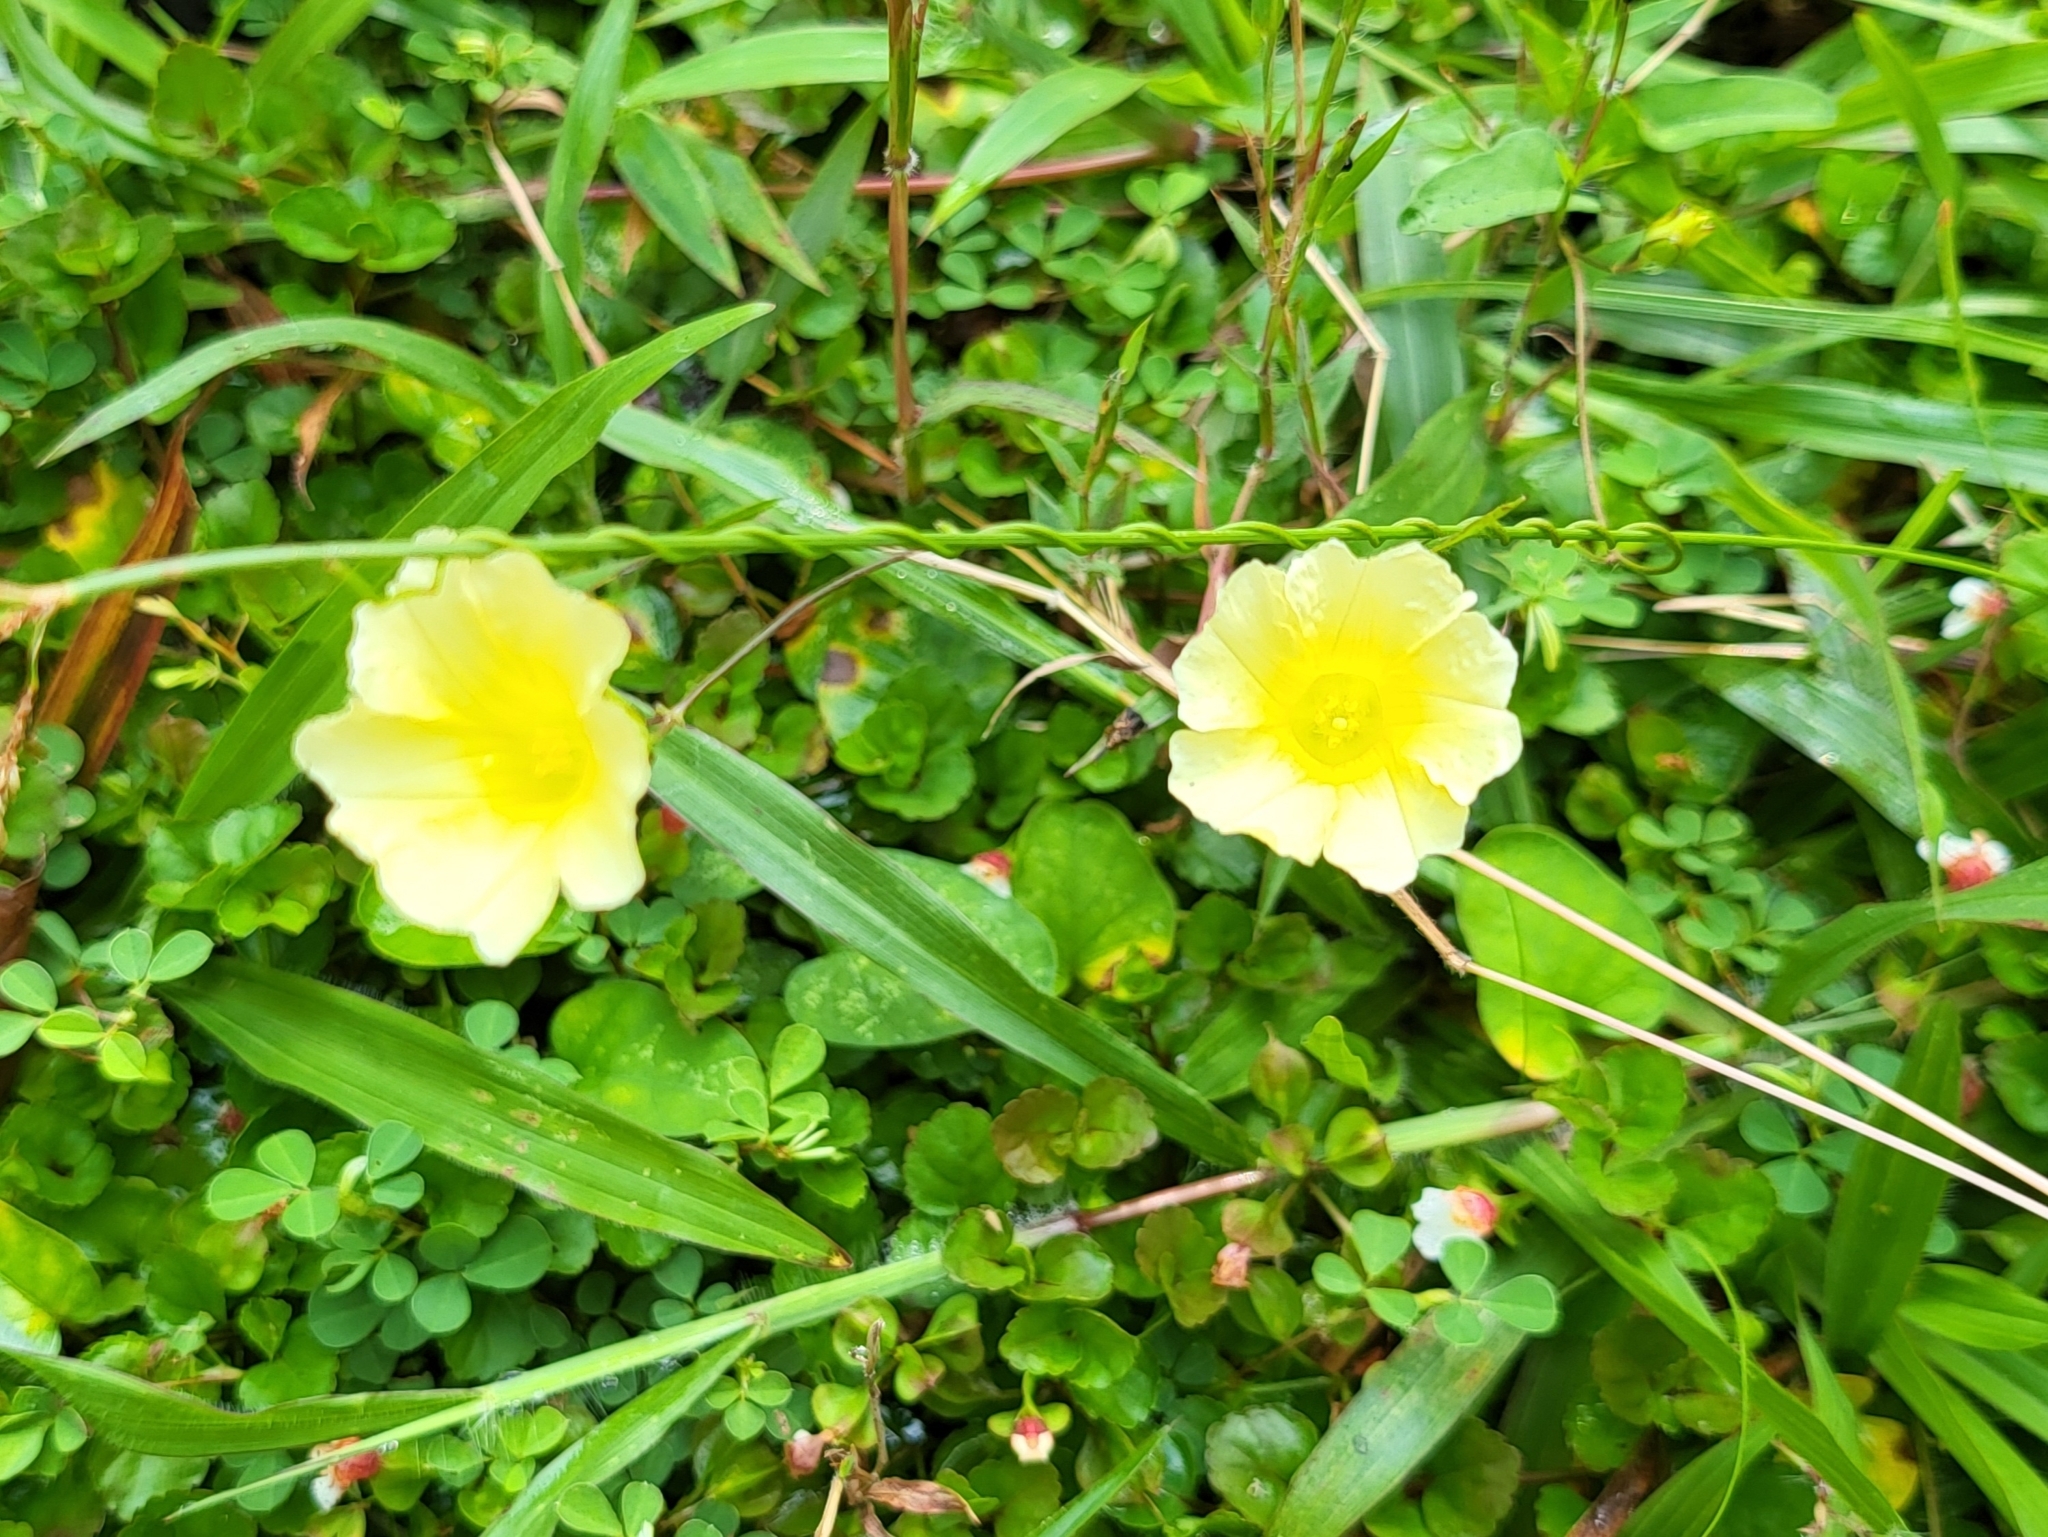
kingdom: Plantae
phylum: Tracheophyta
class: Magnoliopsida
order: Solanales
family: Convolvulaceae
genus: Merremia
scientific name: Merremia hirta
